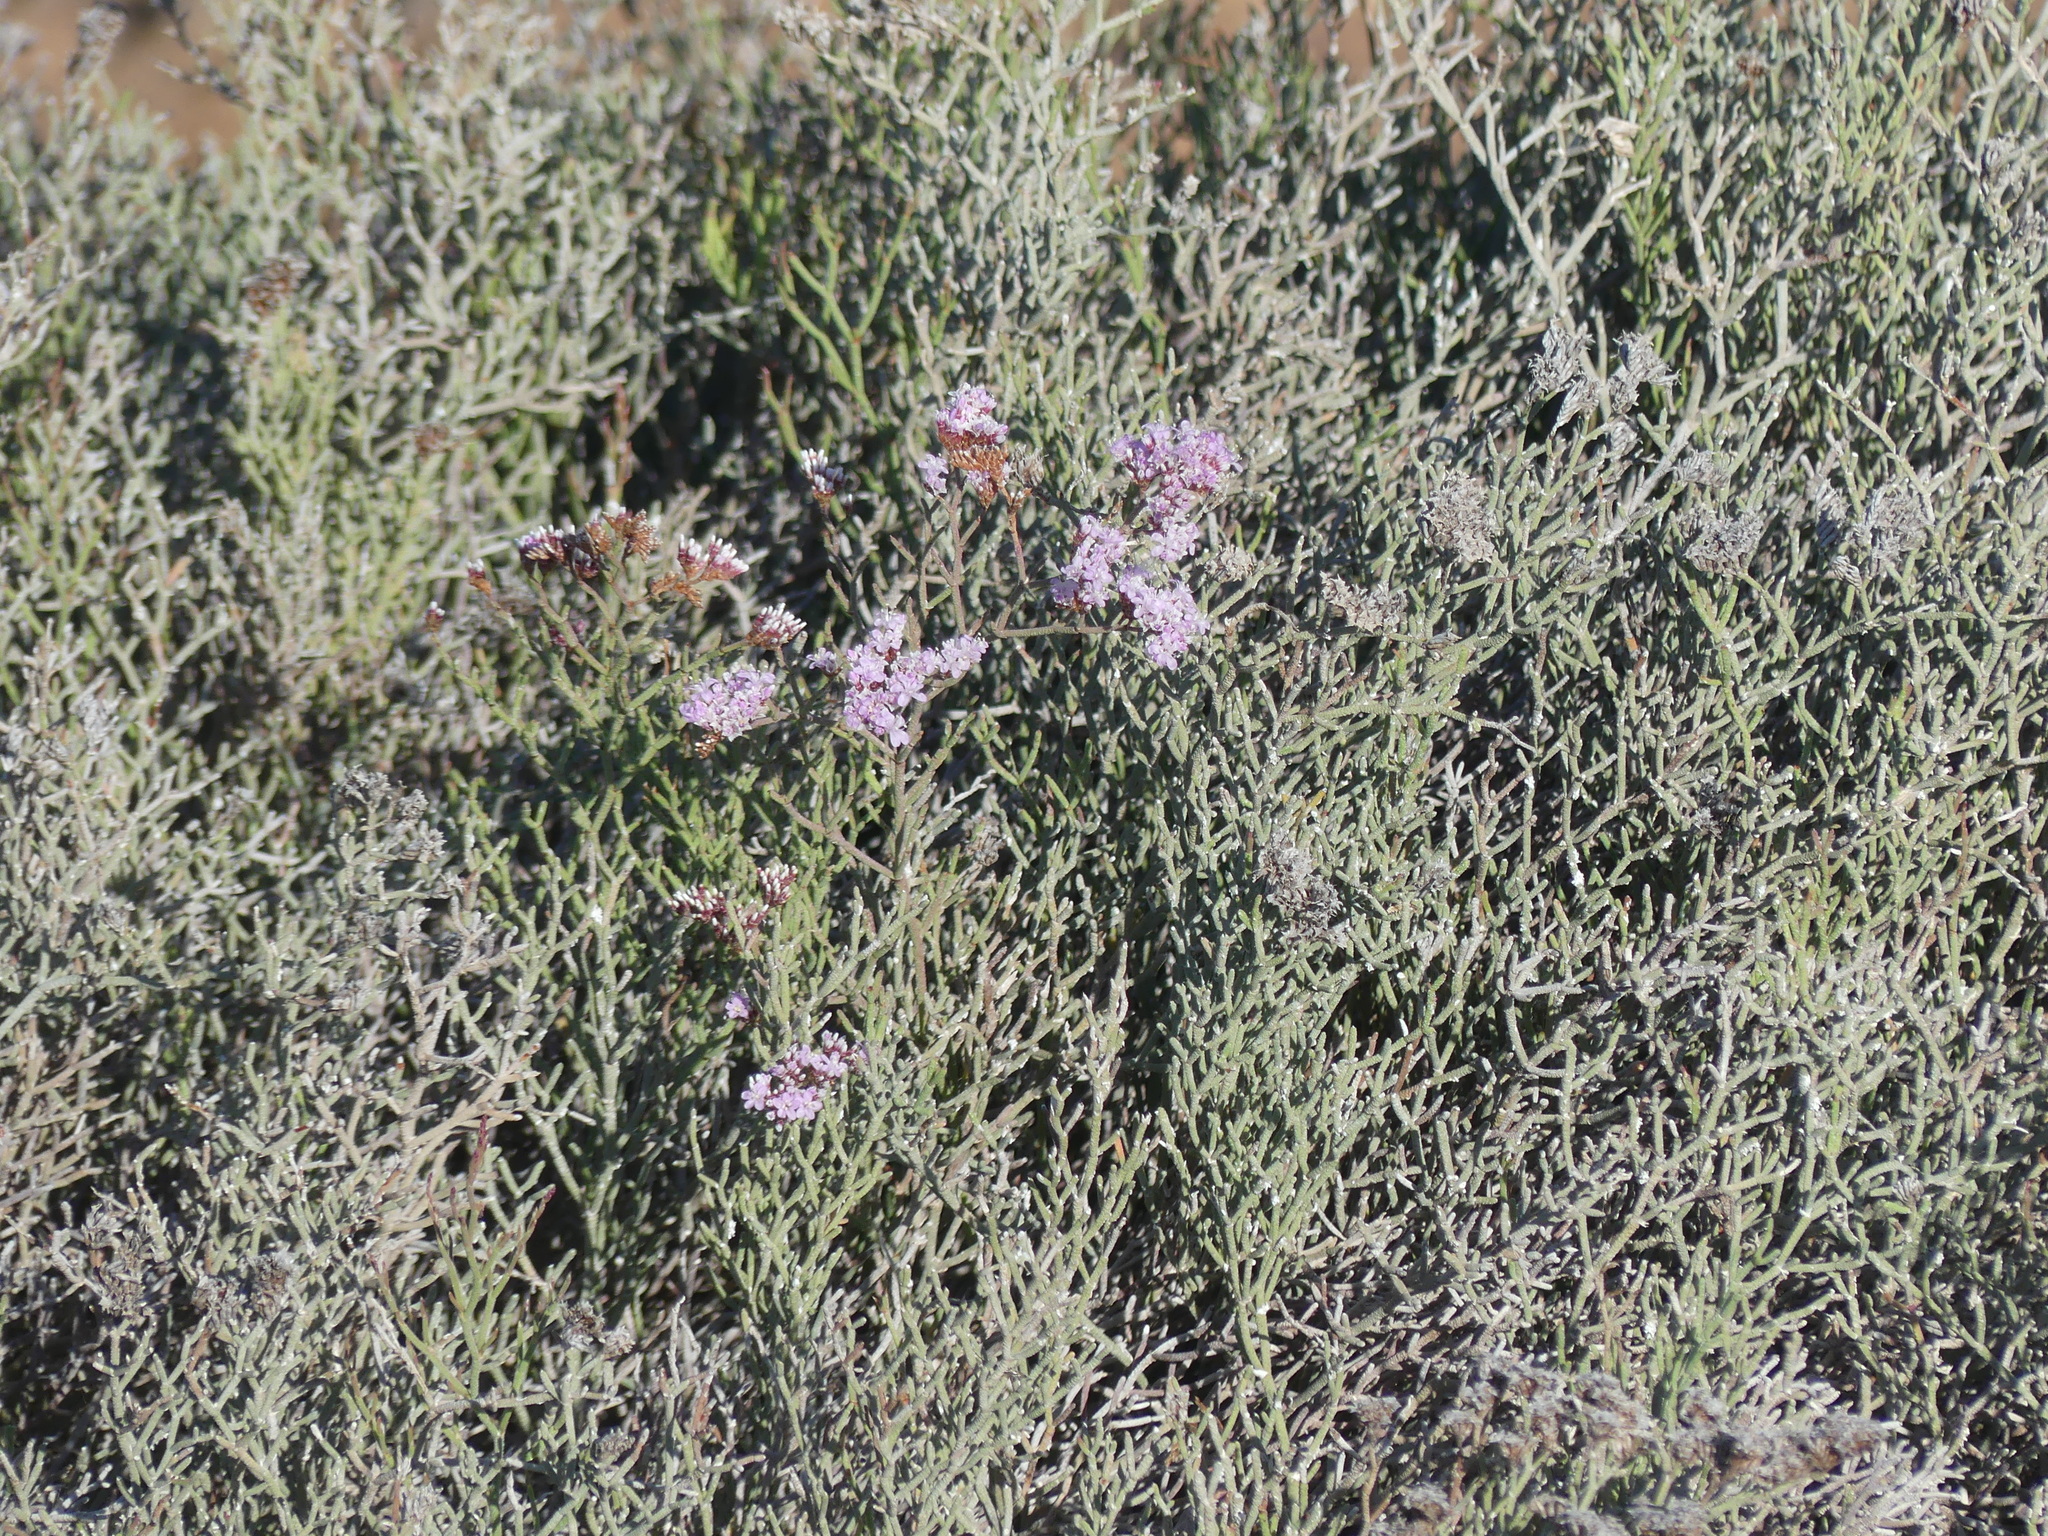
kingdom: Plantae
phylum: Tracheophyta
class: Magnoliopsida
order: Caryophyllales
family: Plumbaginaceae
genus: Limonium
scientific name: Limonium tuberculatum
